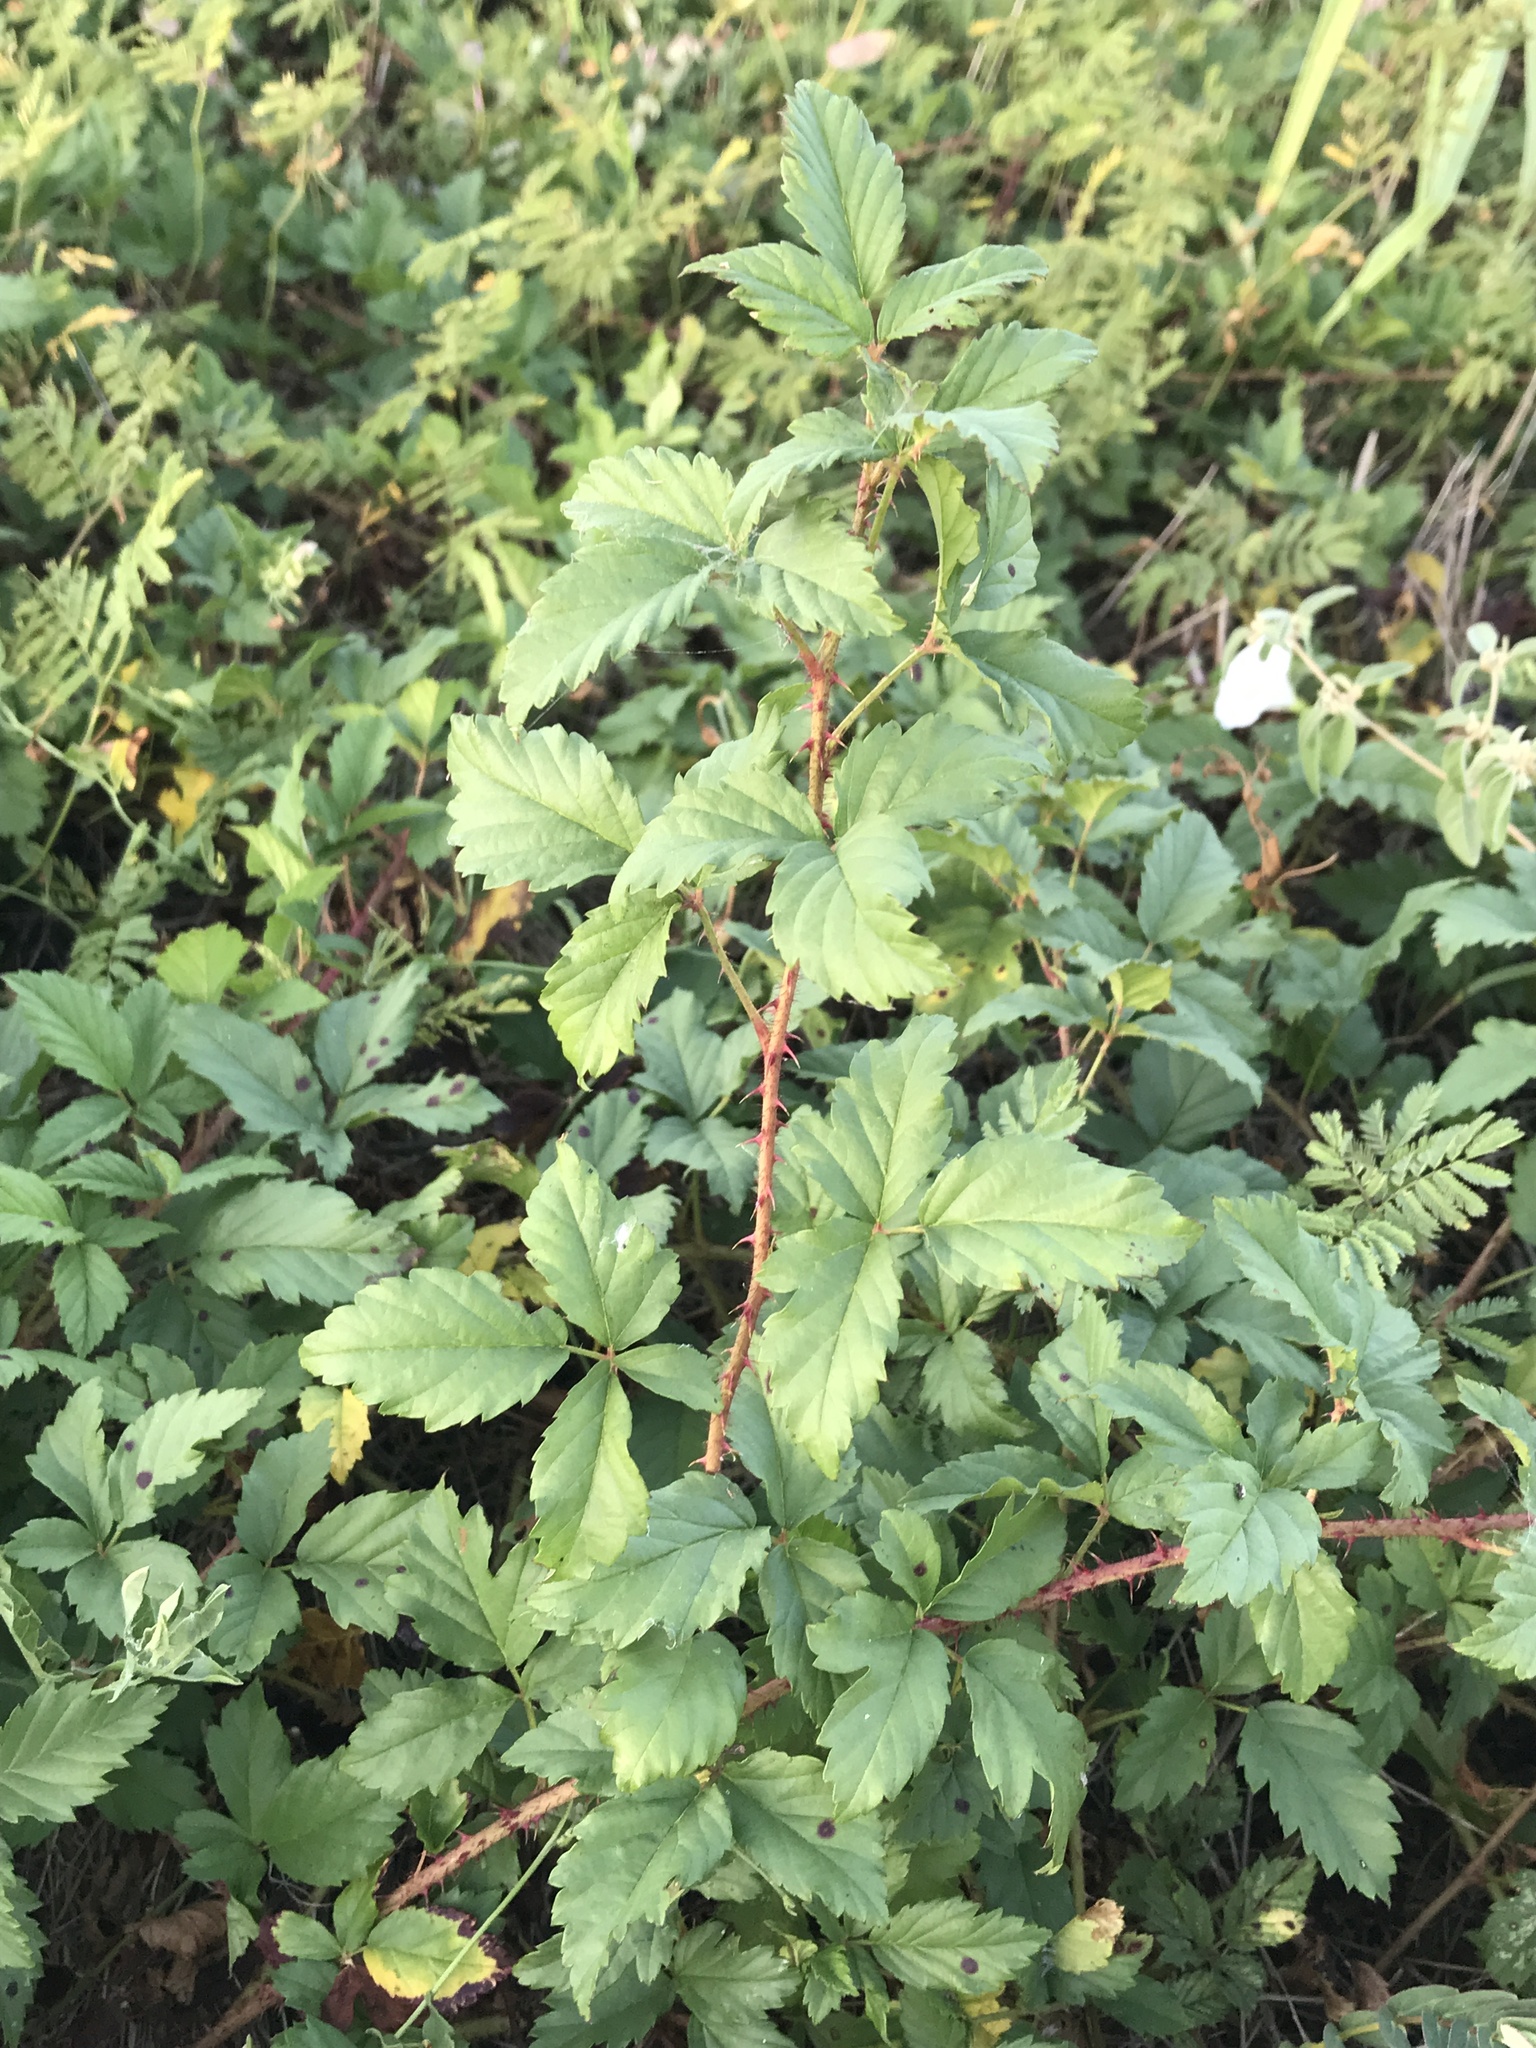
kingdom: Plantae
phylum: Tracheophyta
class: Magnoliopsida
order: Rosales
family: Rosaceae
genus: Rubus
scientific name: Rubus trivialis
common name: Southern dewberry
